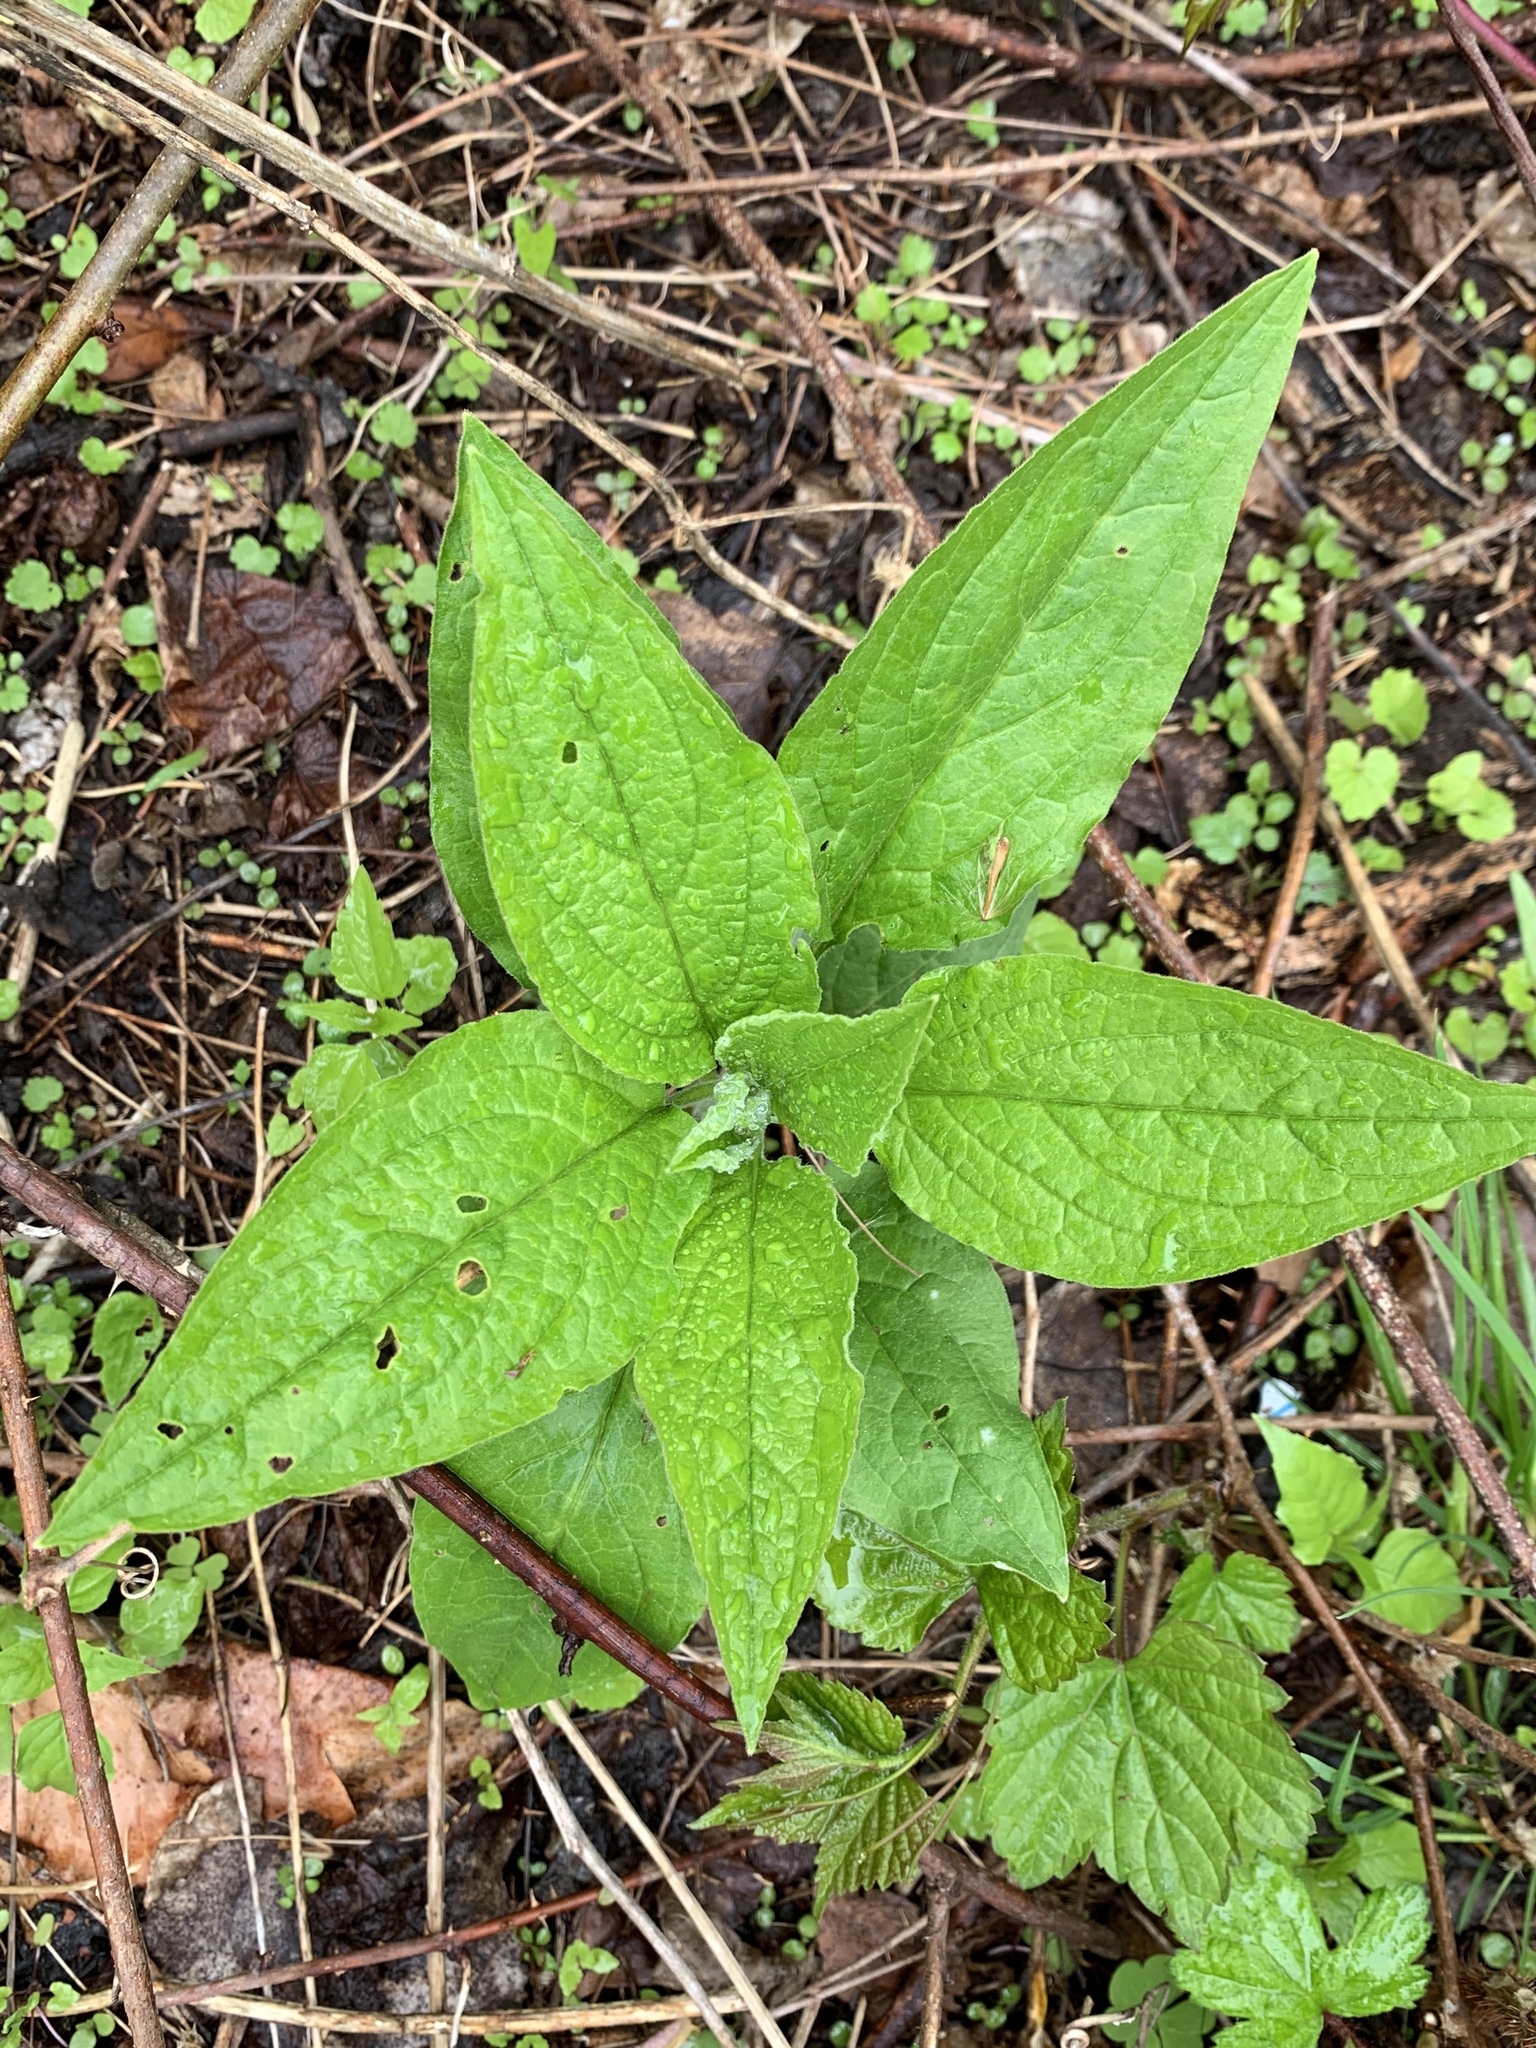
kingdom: Plantae
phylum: Tracheophyta
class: Magnoliopsida
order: Boraginales
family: Boraginaceae
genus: Hackelia
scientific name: Hackelia virginiana
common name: Beggar's-lice
